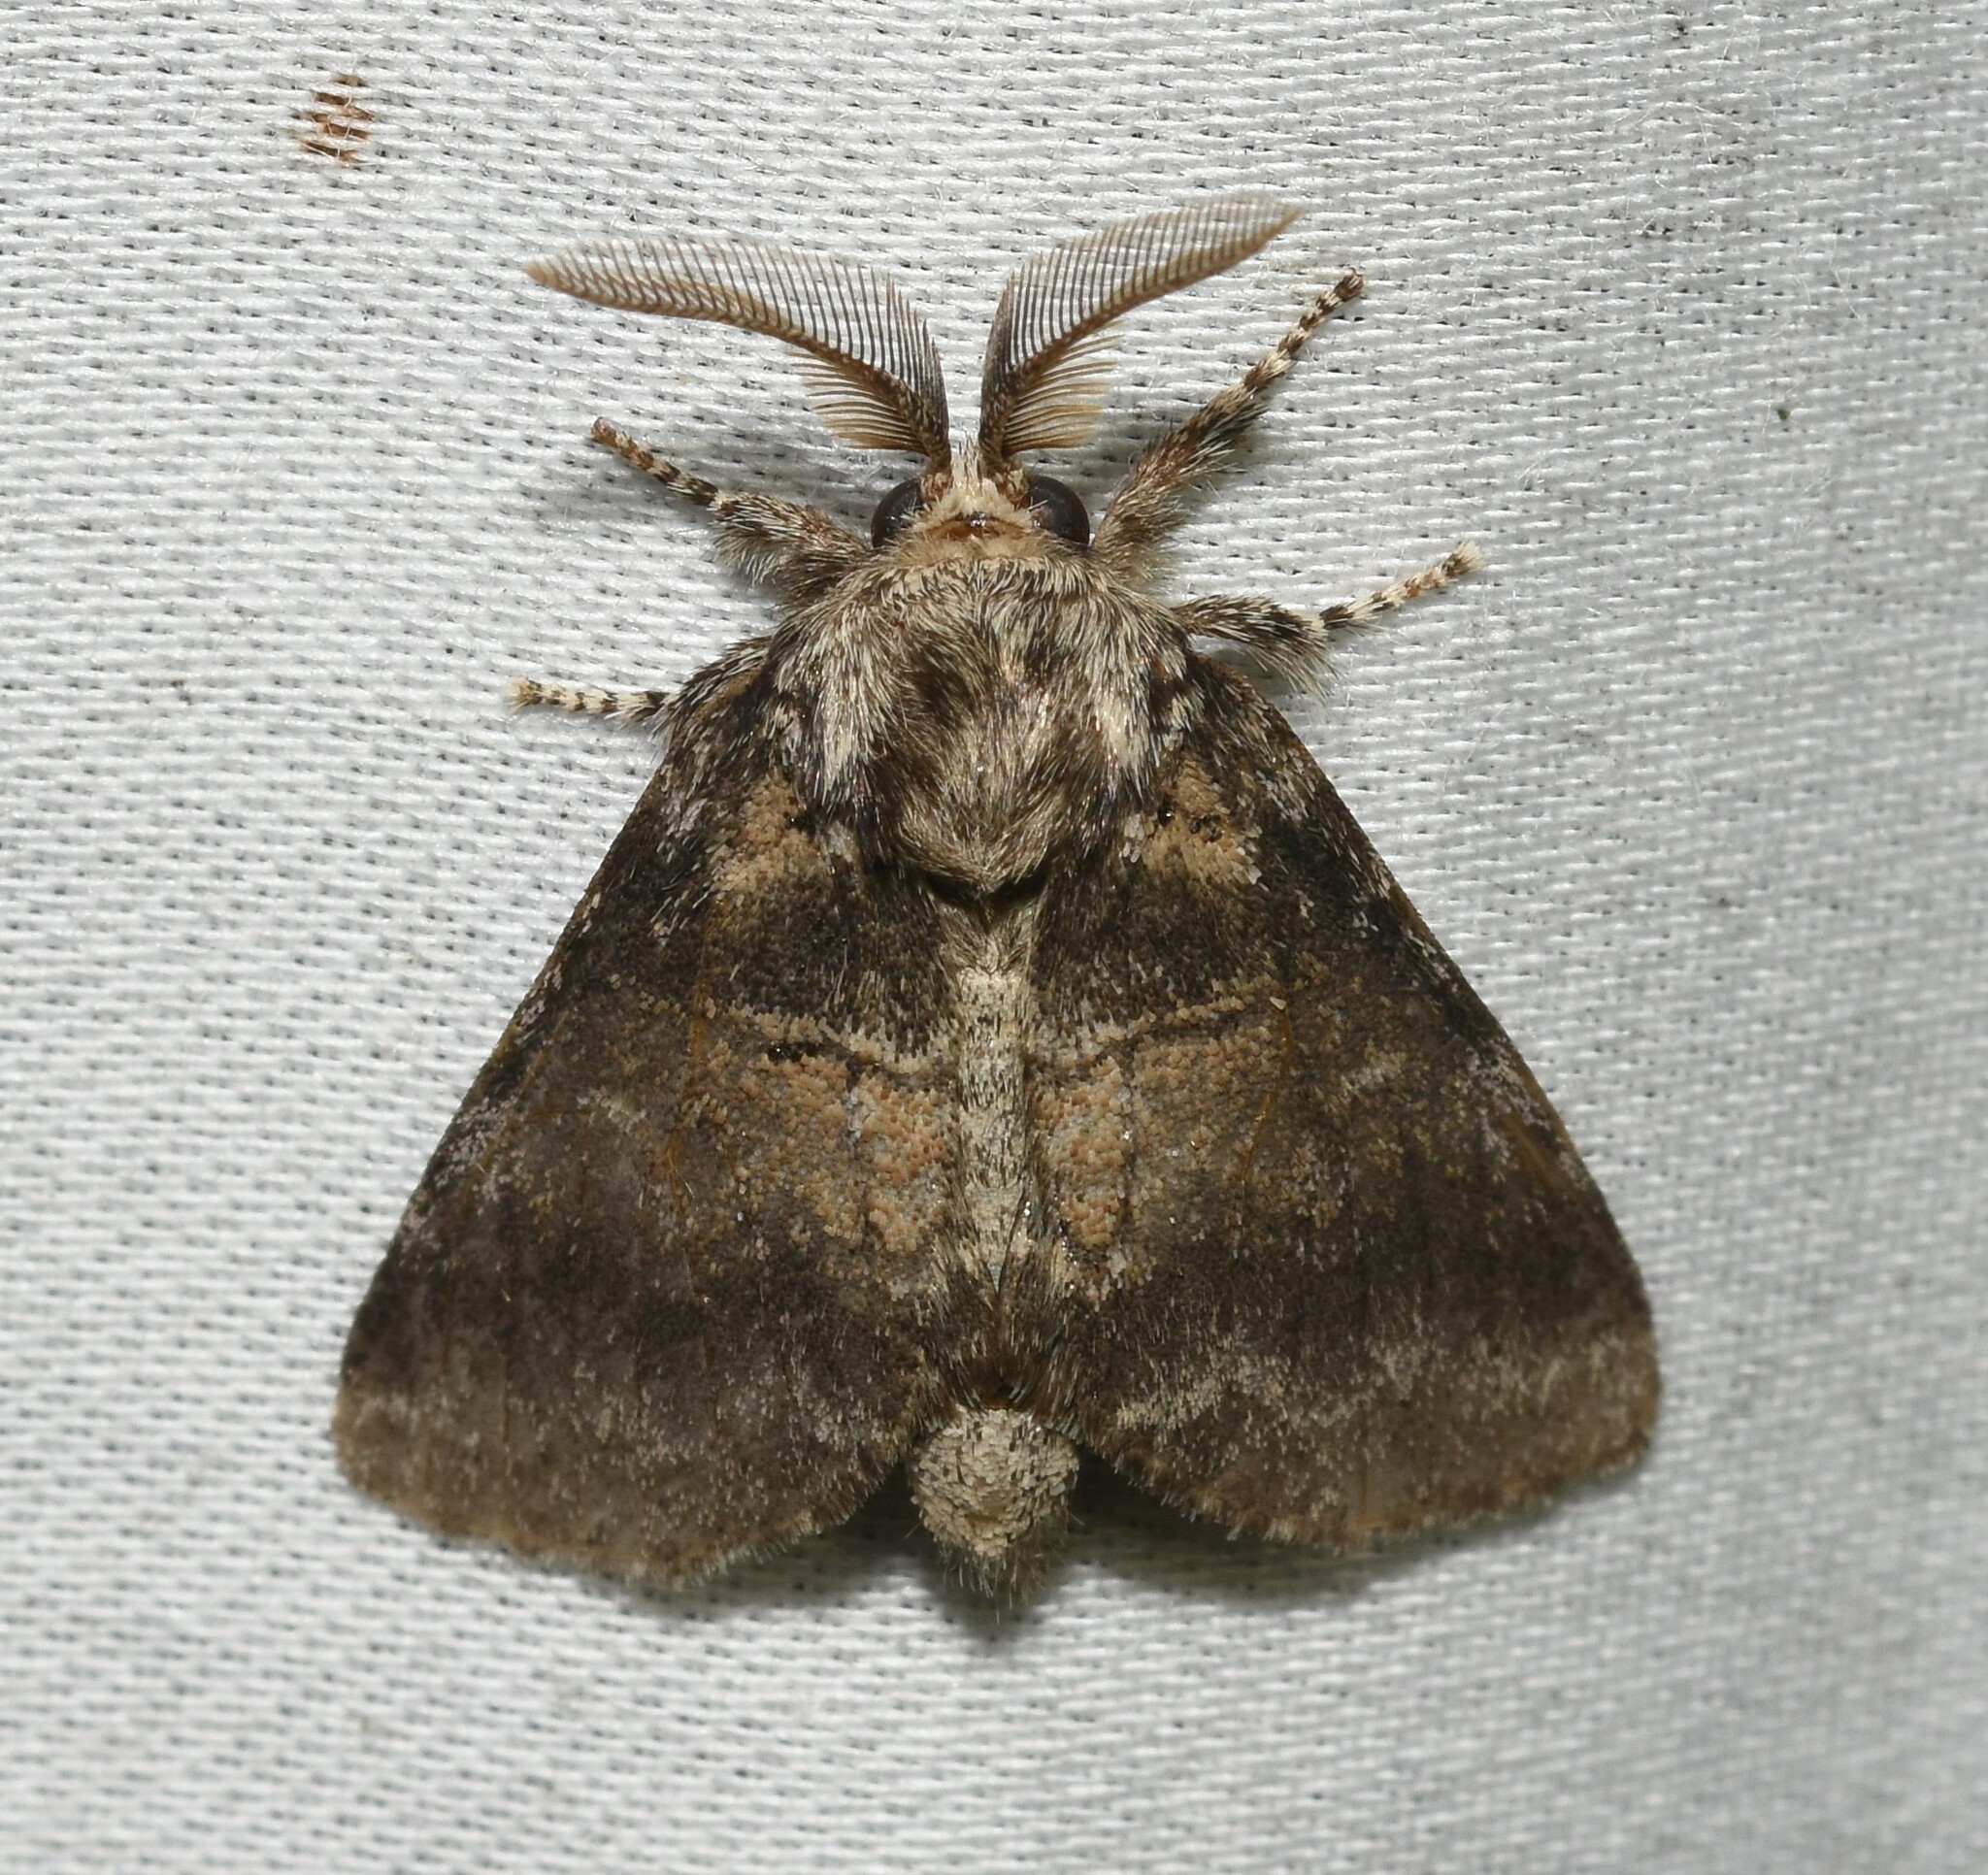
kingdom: Animalia
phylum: Arthropoda
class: Insecta
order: Lepidoptera
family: Notodontidae
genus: Gluphisia
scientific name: Gluphisia septentrionis
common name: Common gluphisia
